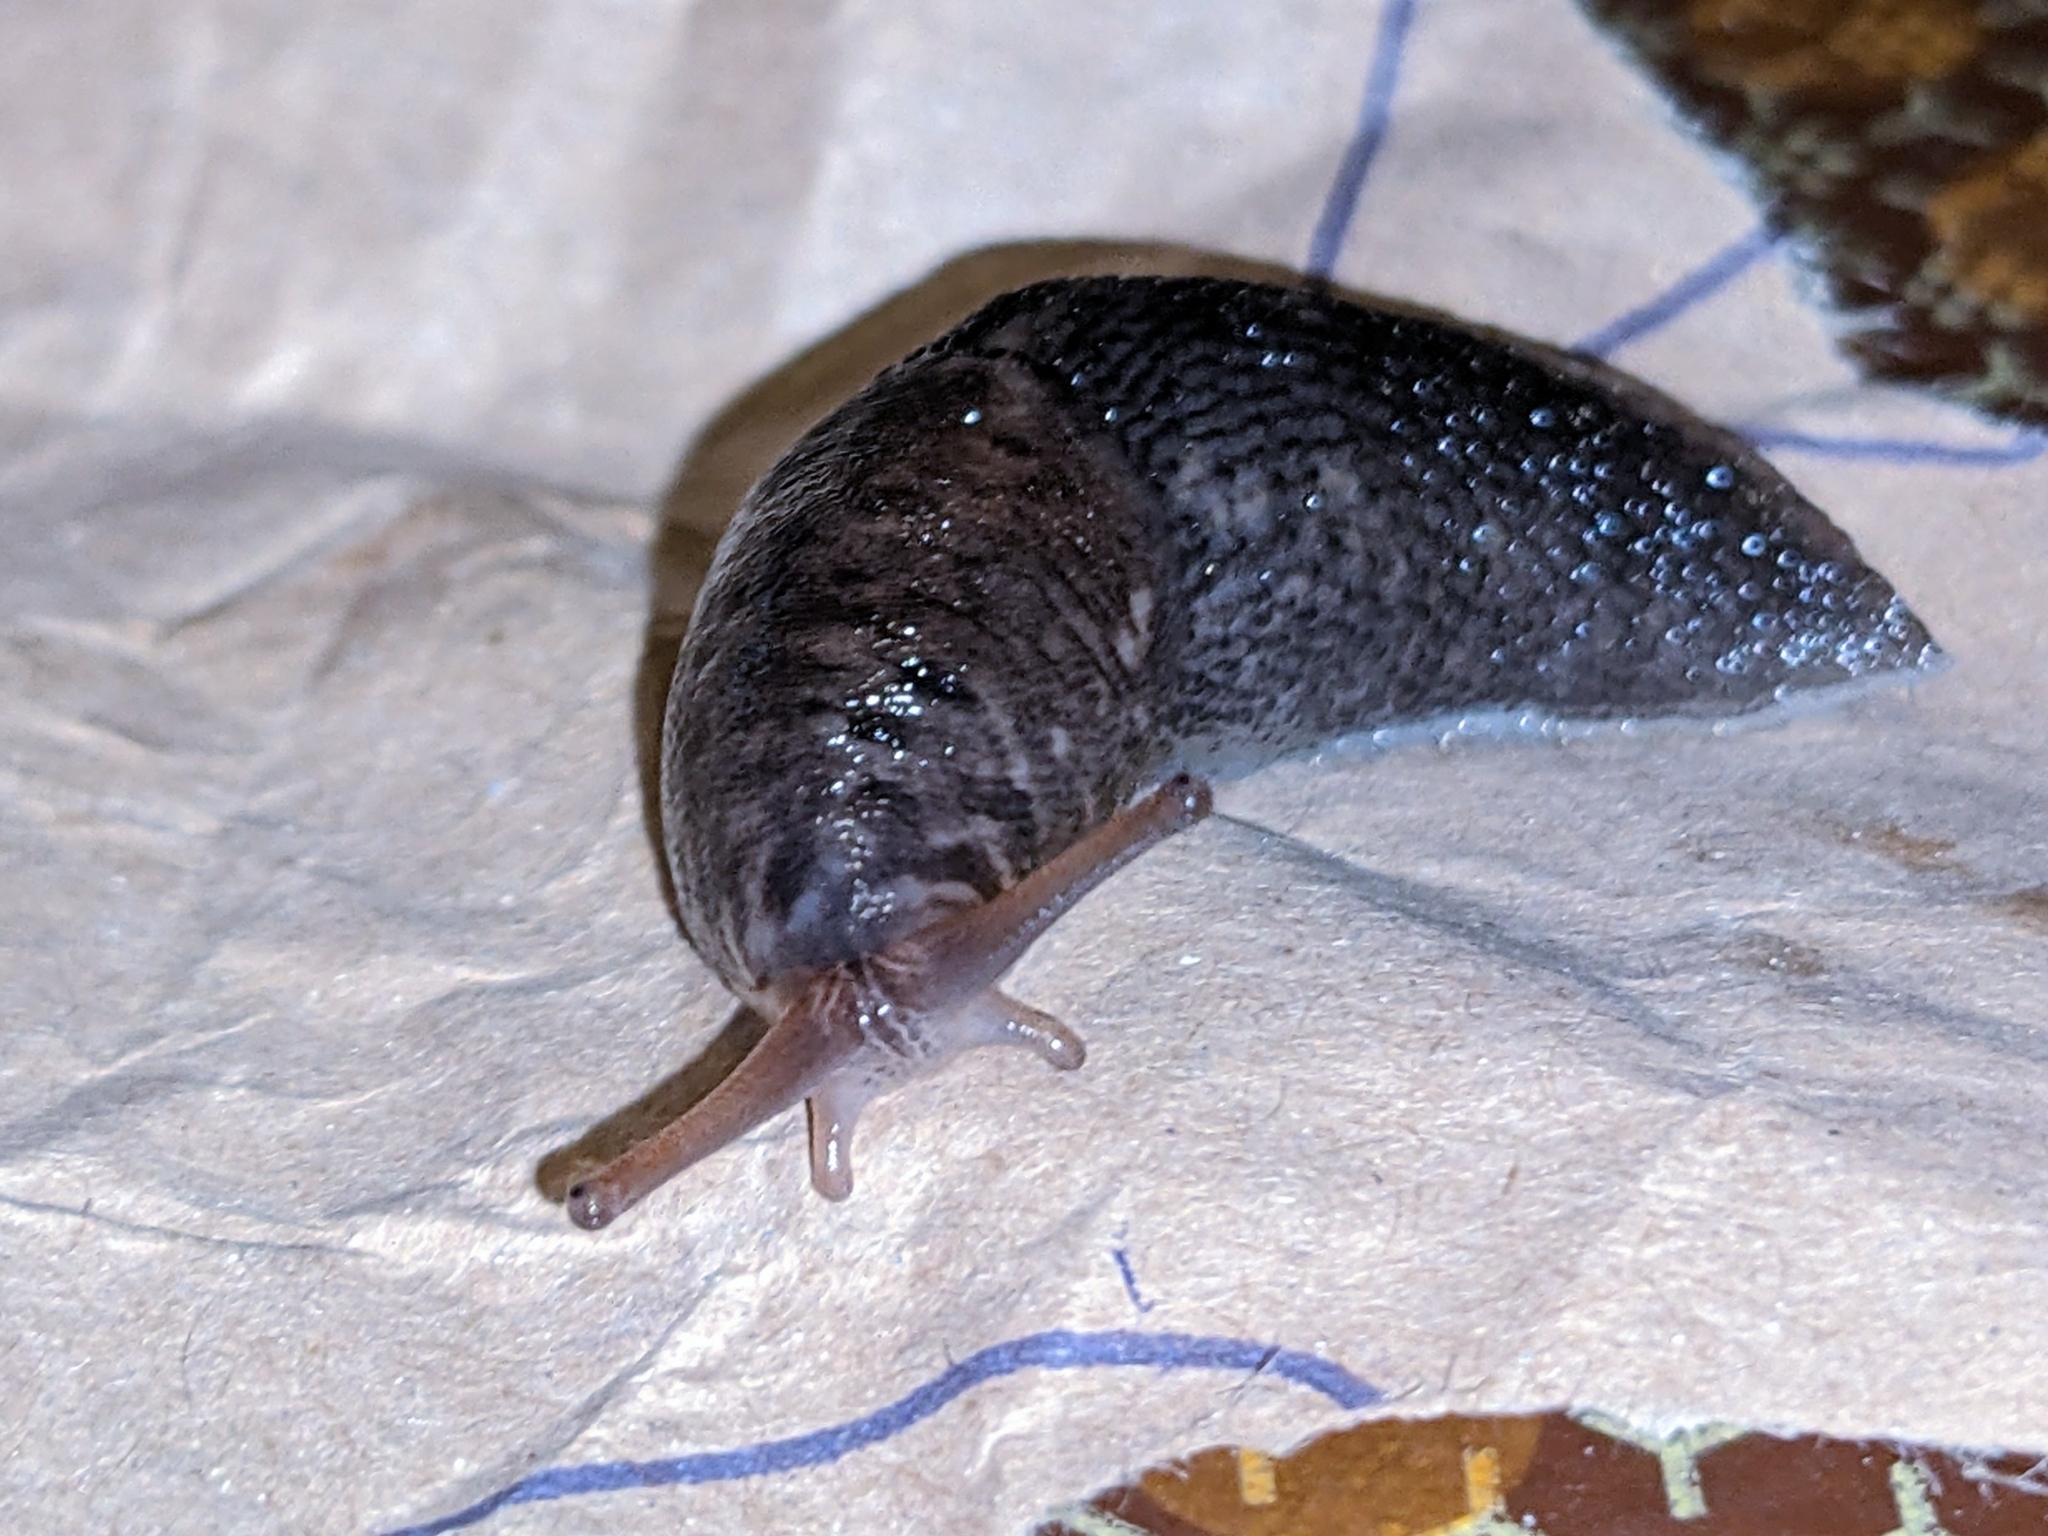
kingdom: Animalia
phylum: Mollusca
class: Gastropoda
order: Stylommatophora
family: Limacidae
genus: Limax
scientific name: Limax maximus
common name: Great grey slug
